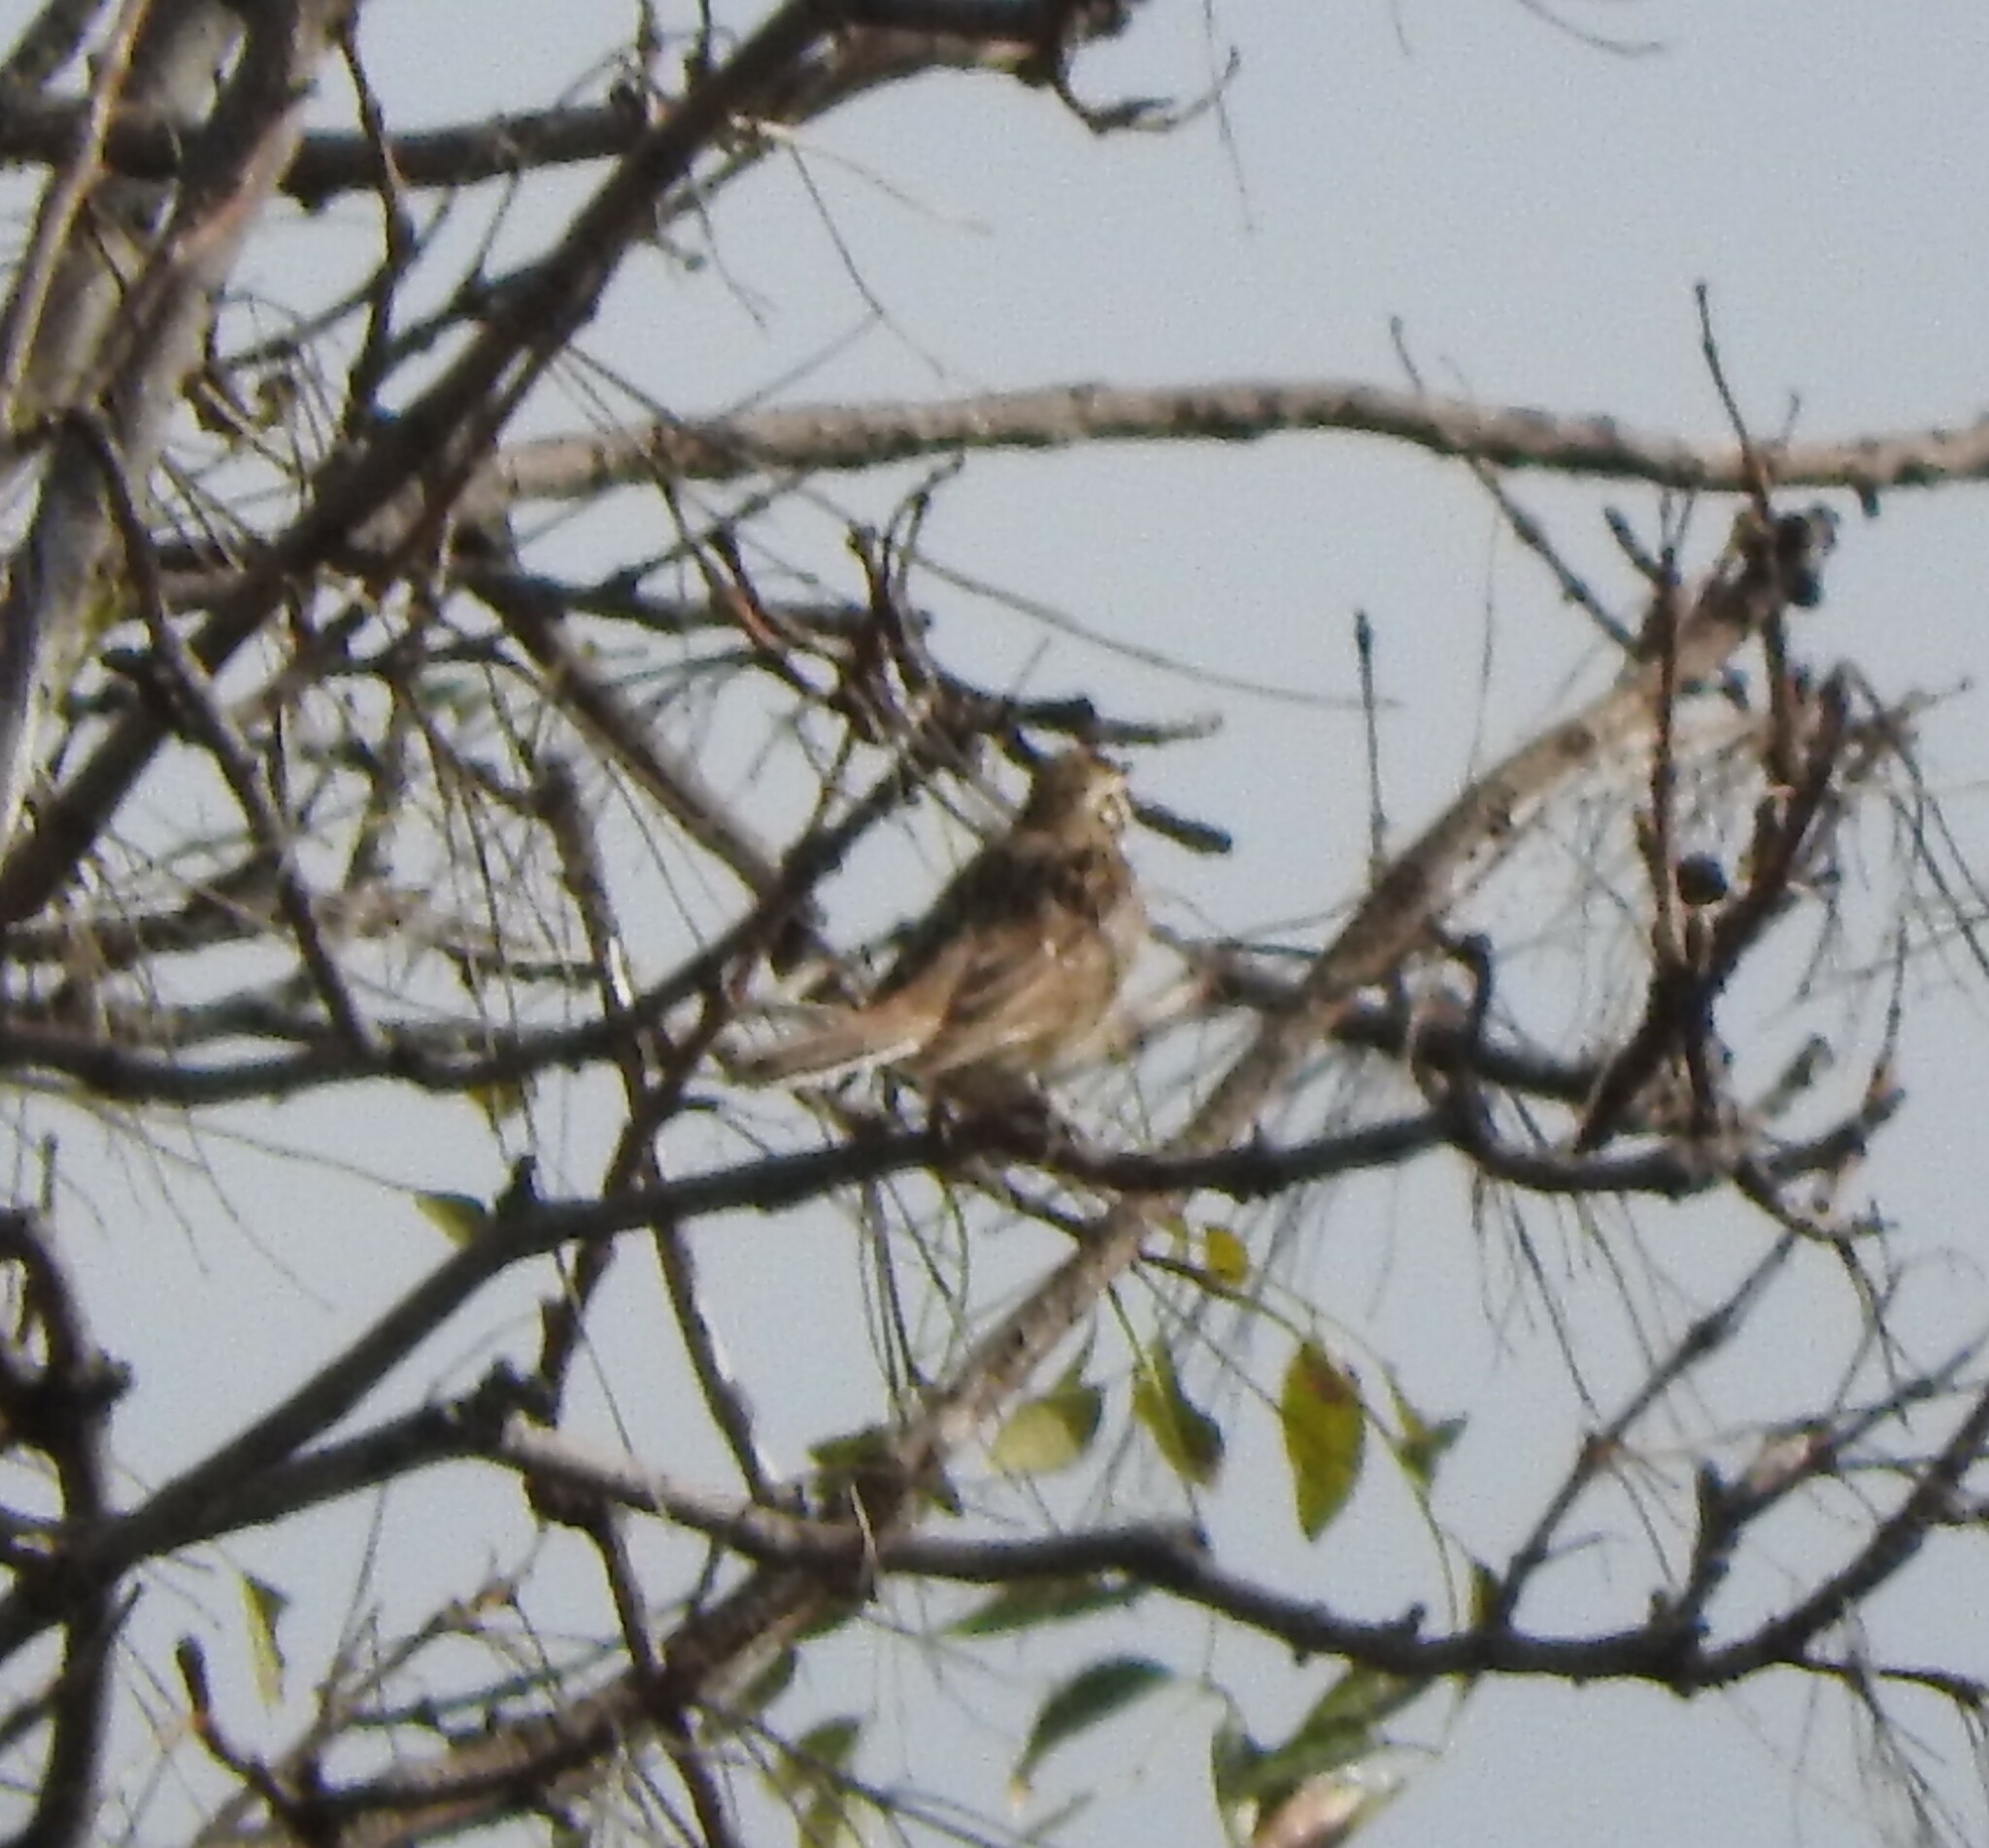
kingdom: Animalia
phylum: Chordata
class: Aves
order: Passeriformes
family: Passerellidae
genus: Chondestes
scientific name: Chondestes grammacus
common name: Lark sparrow
